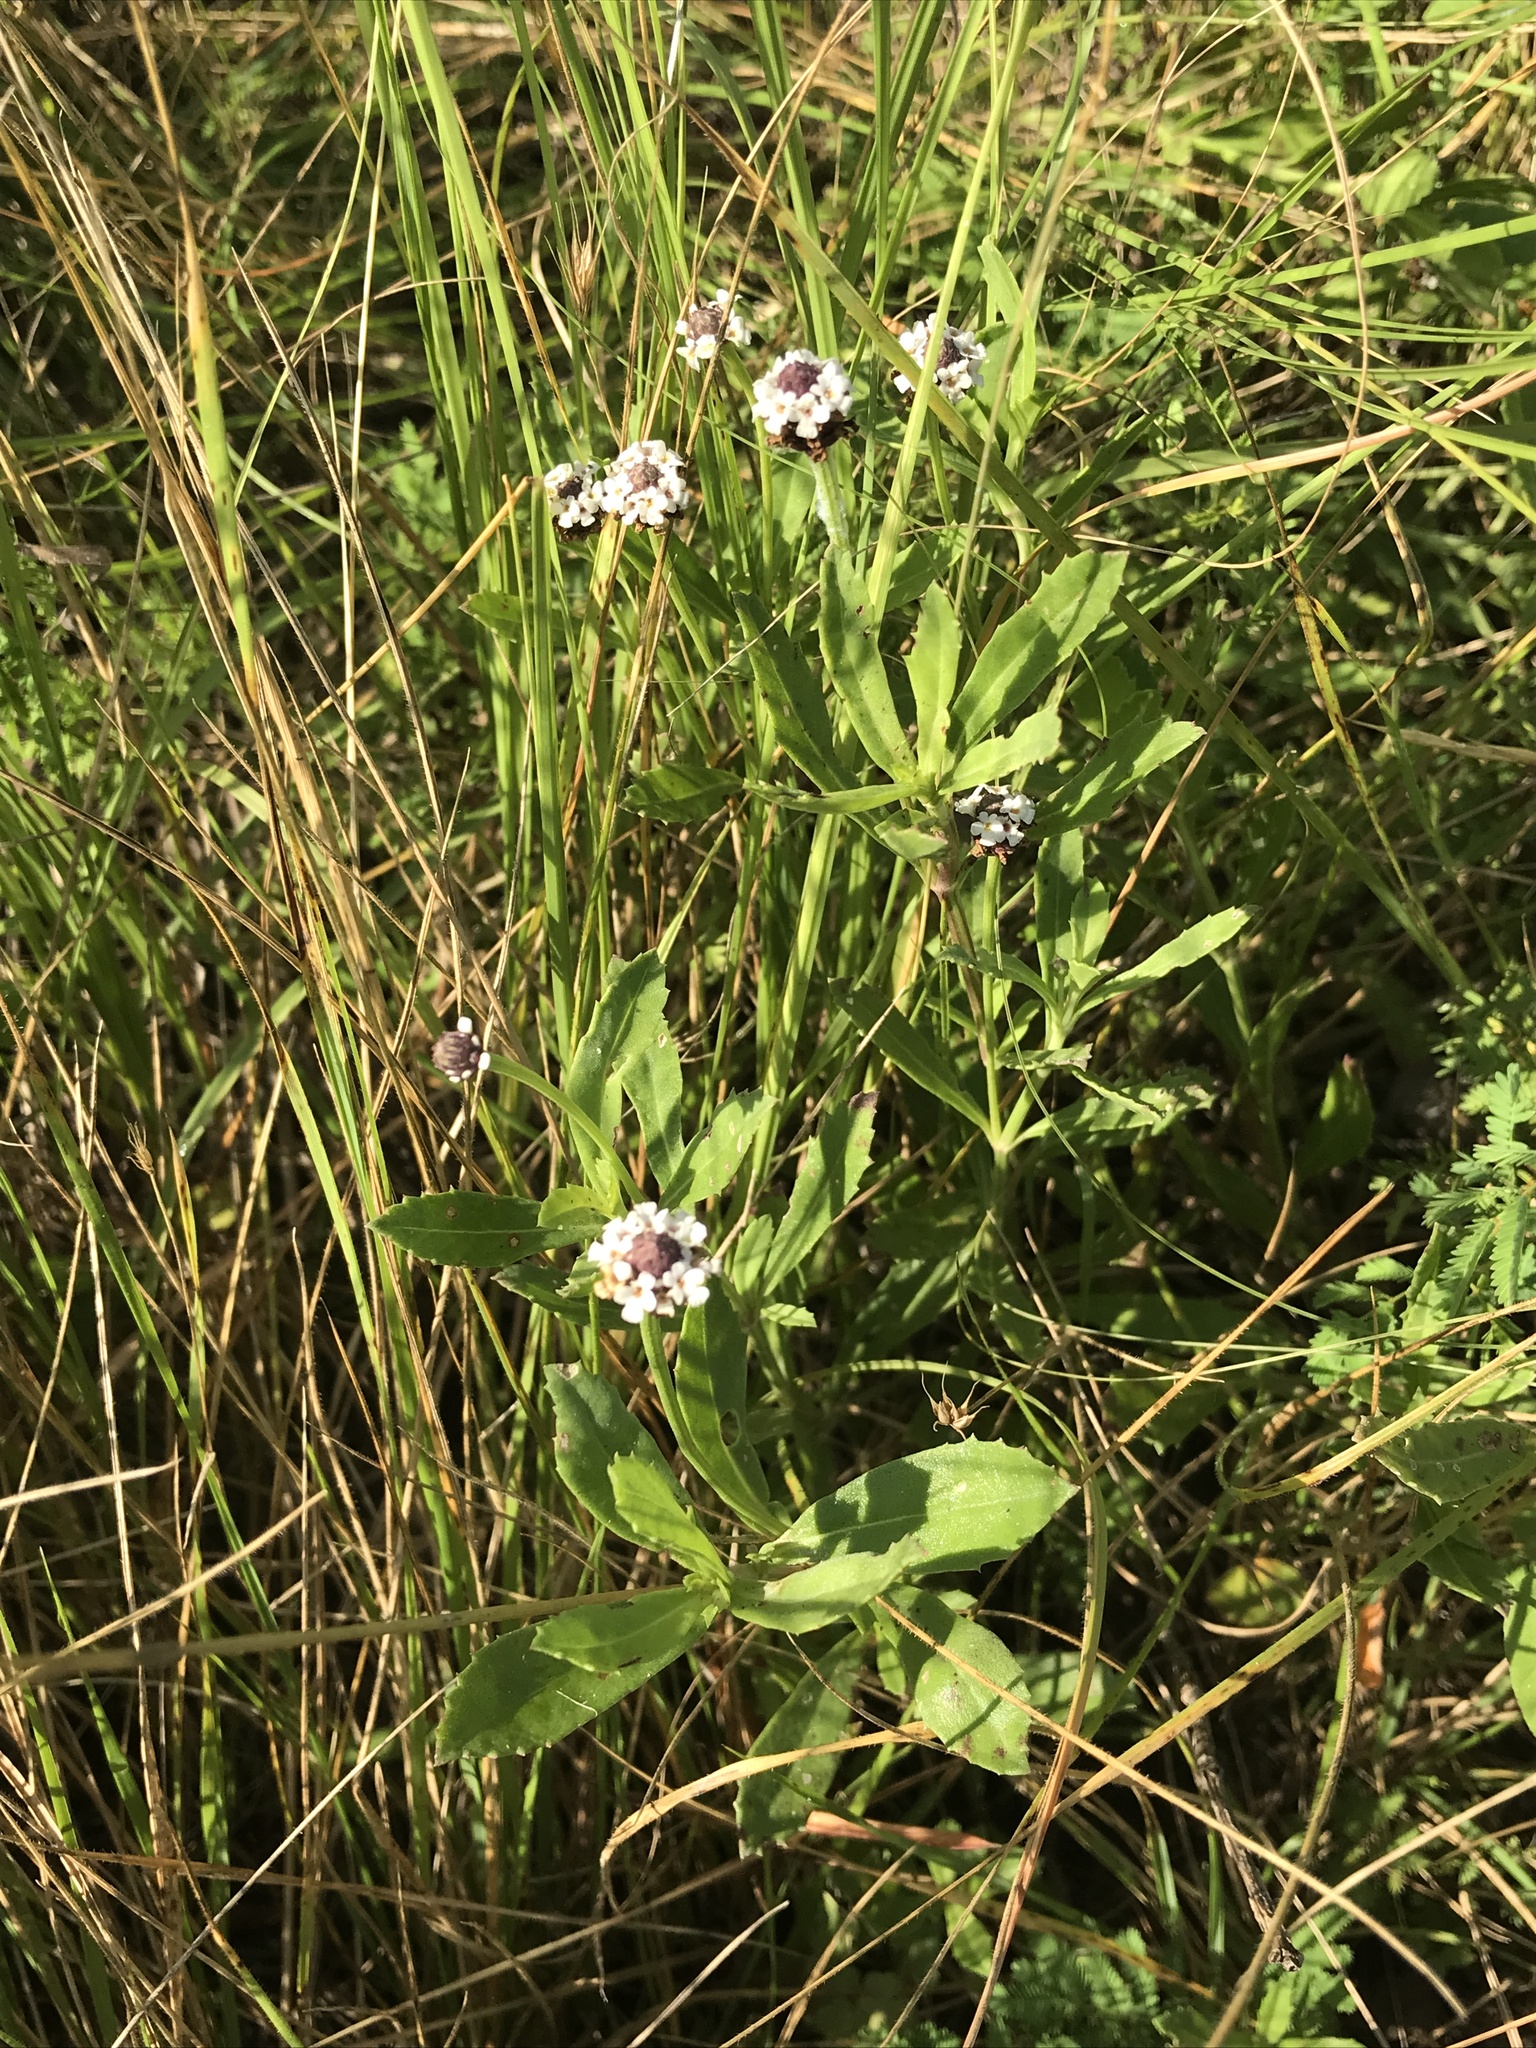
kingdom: Plantae
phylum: Tracheophyta
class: Magnoliopsida
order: Lamiales
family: Verbenaceae
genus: Phyla
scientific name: Phyla nodiflora
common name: Frogfruit
